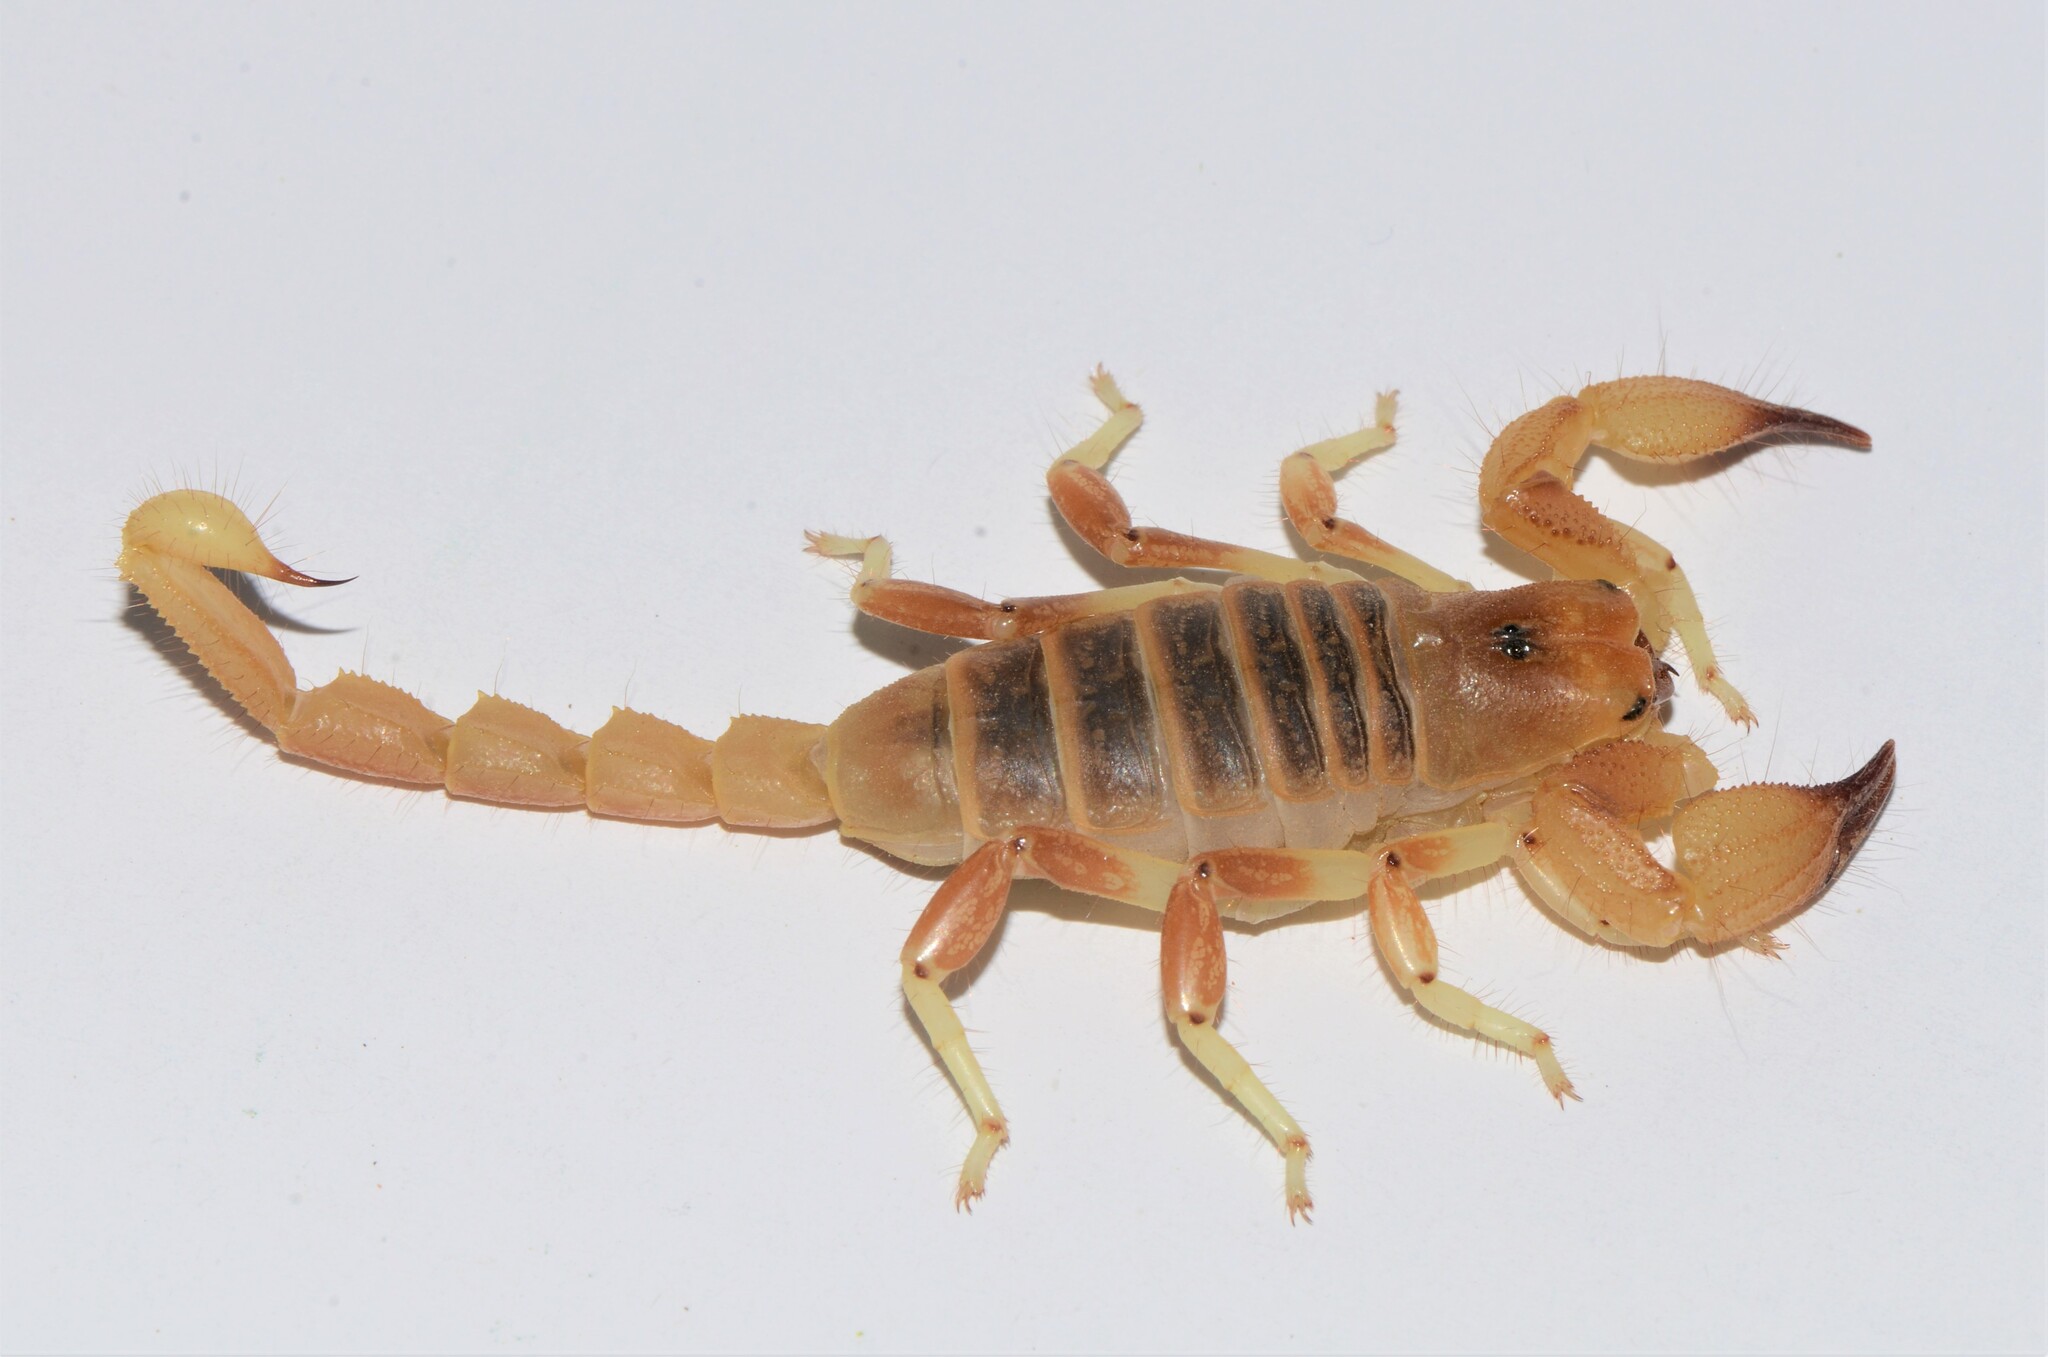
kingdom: Animalia
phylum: Arthropoda
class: Arachnida
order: Scorpiones
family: Scorpionidae
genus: Opistophthalmus
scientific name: Opistophthalmus lornae
